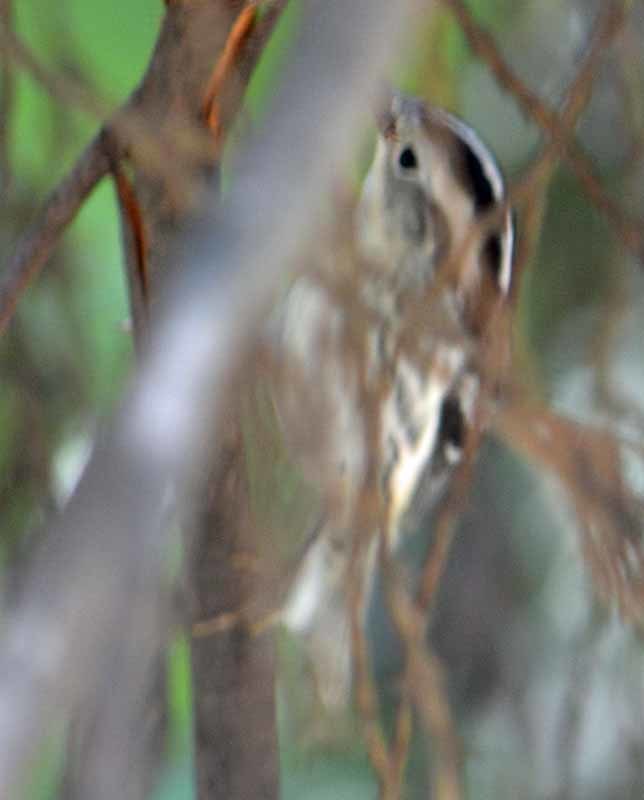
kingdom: Animalia
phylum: Chordata
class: Aves
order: Passeriformes
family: Parulidae
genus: Mniotilta
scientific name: Mniotilta varia
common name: Black-and-white warbler
